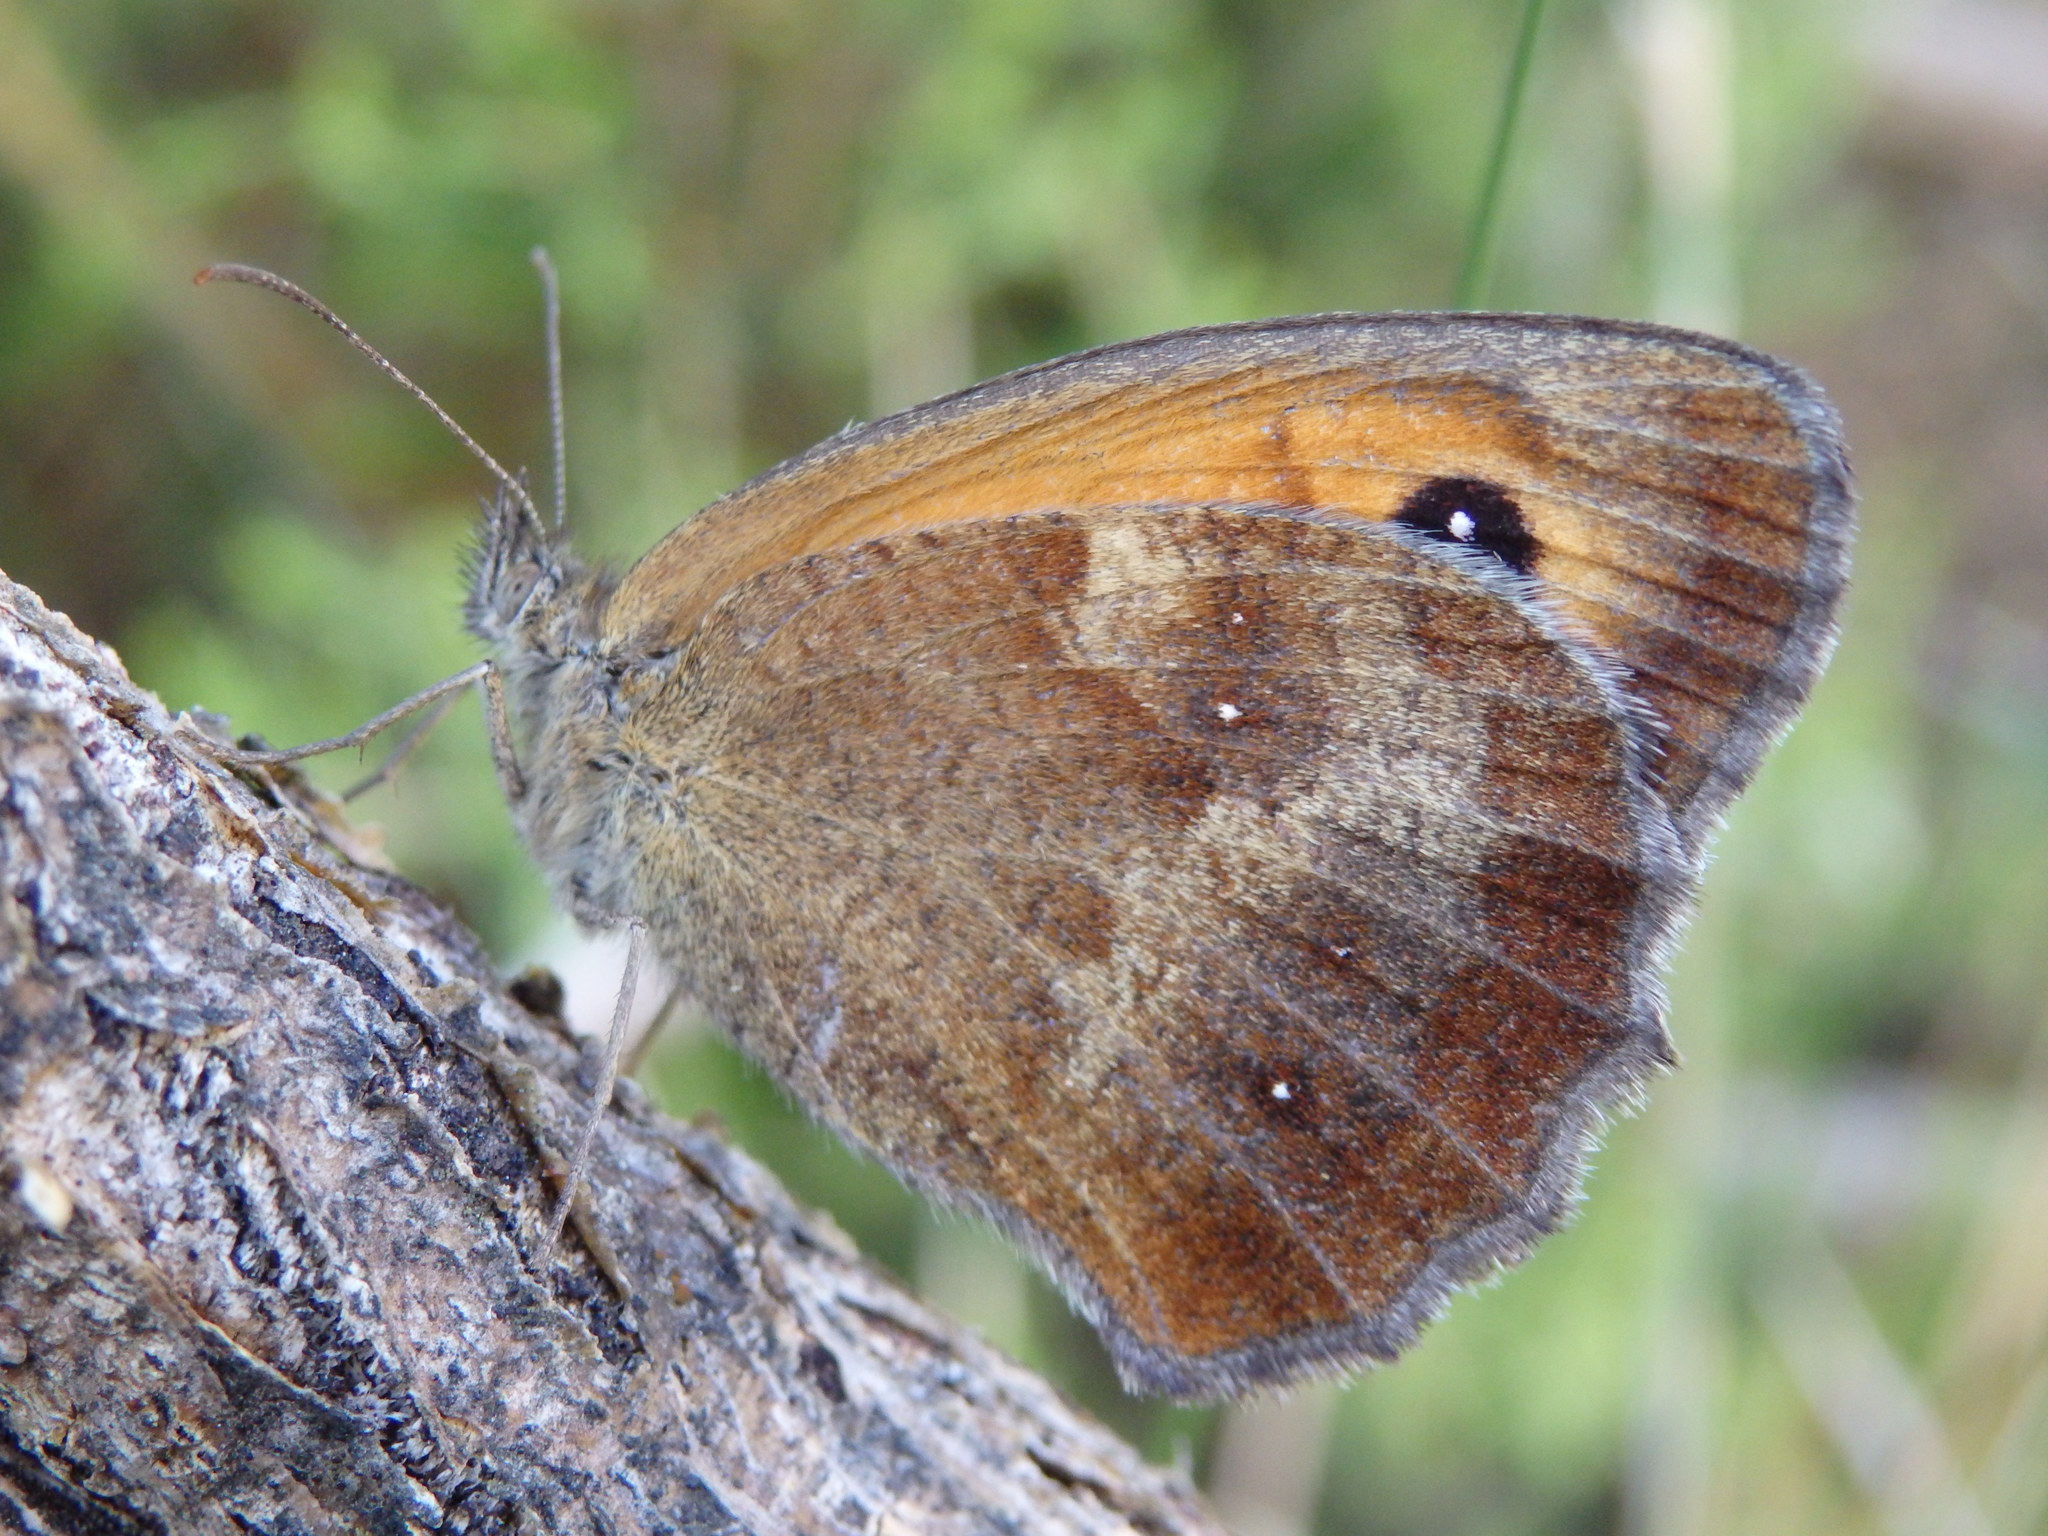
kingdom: Animalia
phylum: Arthropoda
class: Insecta
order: Lepidoptera
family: Nymphalidae
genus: Pyronia
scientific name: Pyronia tithonus
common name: Gatekeeper
